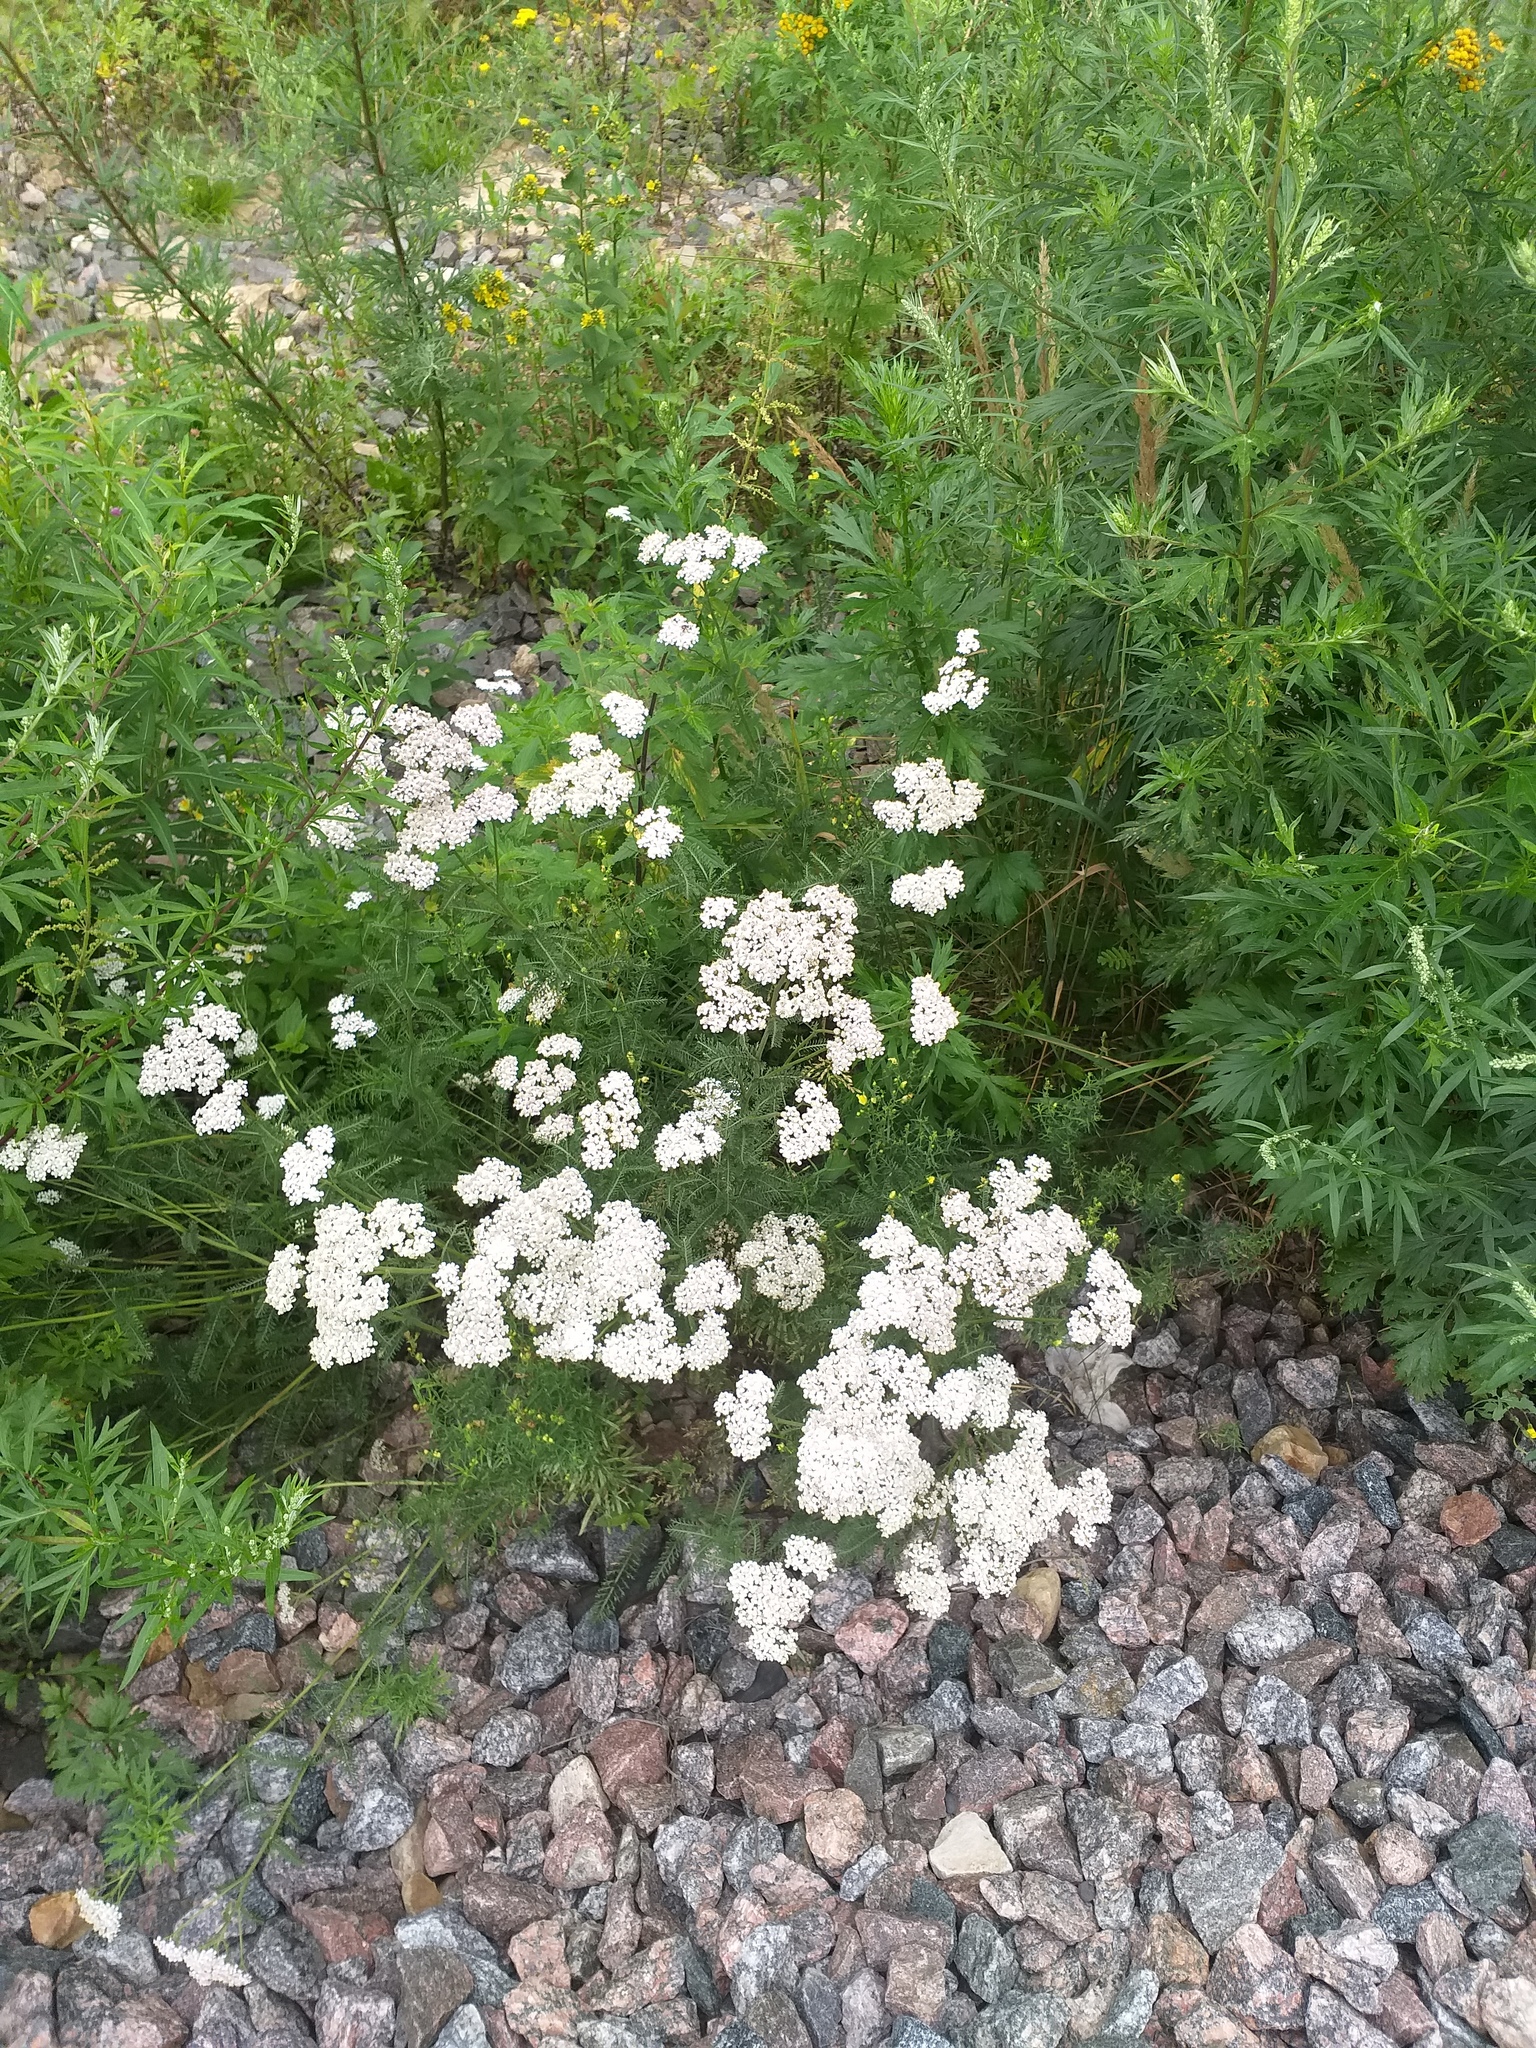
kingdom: Plantae
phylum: Tracheophyta
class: Magnoliopsida
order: Asterales
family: Asteraceae
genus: Achillea
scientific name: Achillea millefolium
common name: Yarrow
